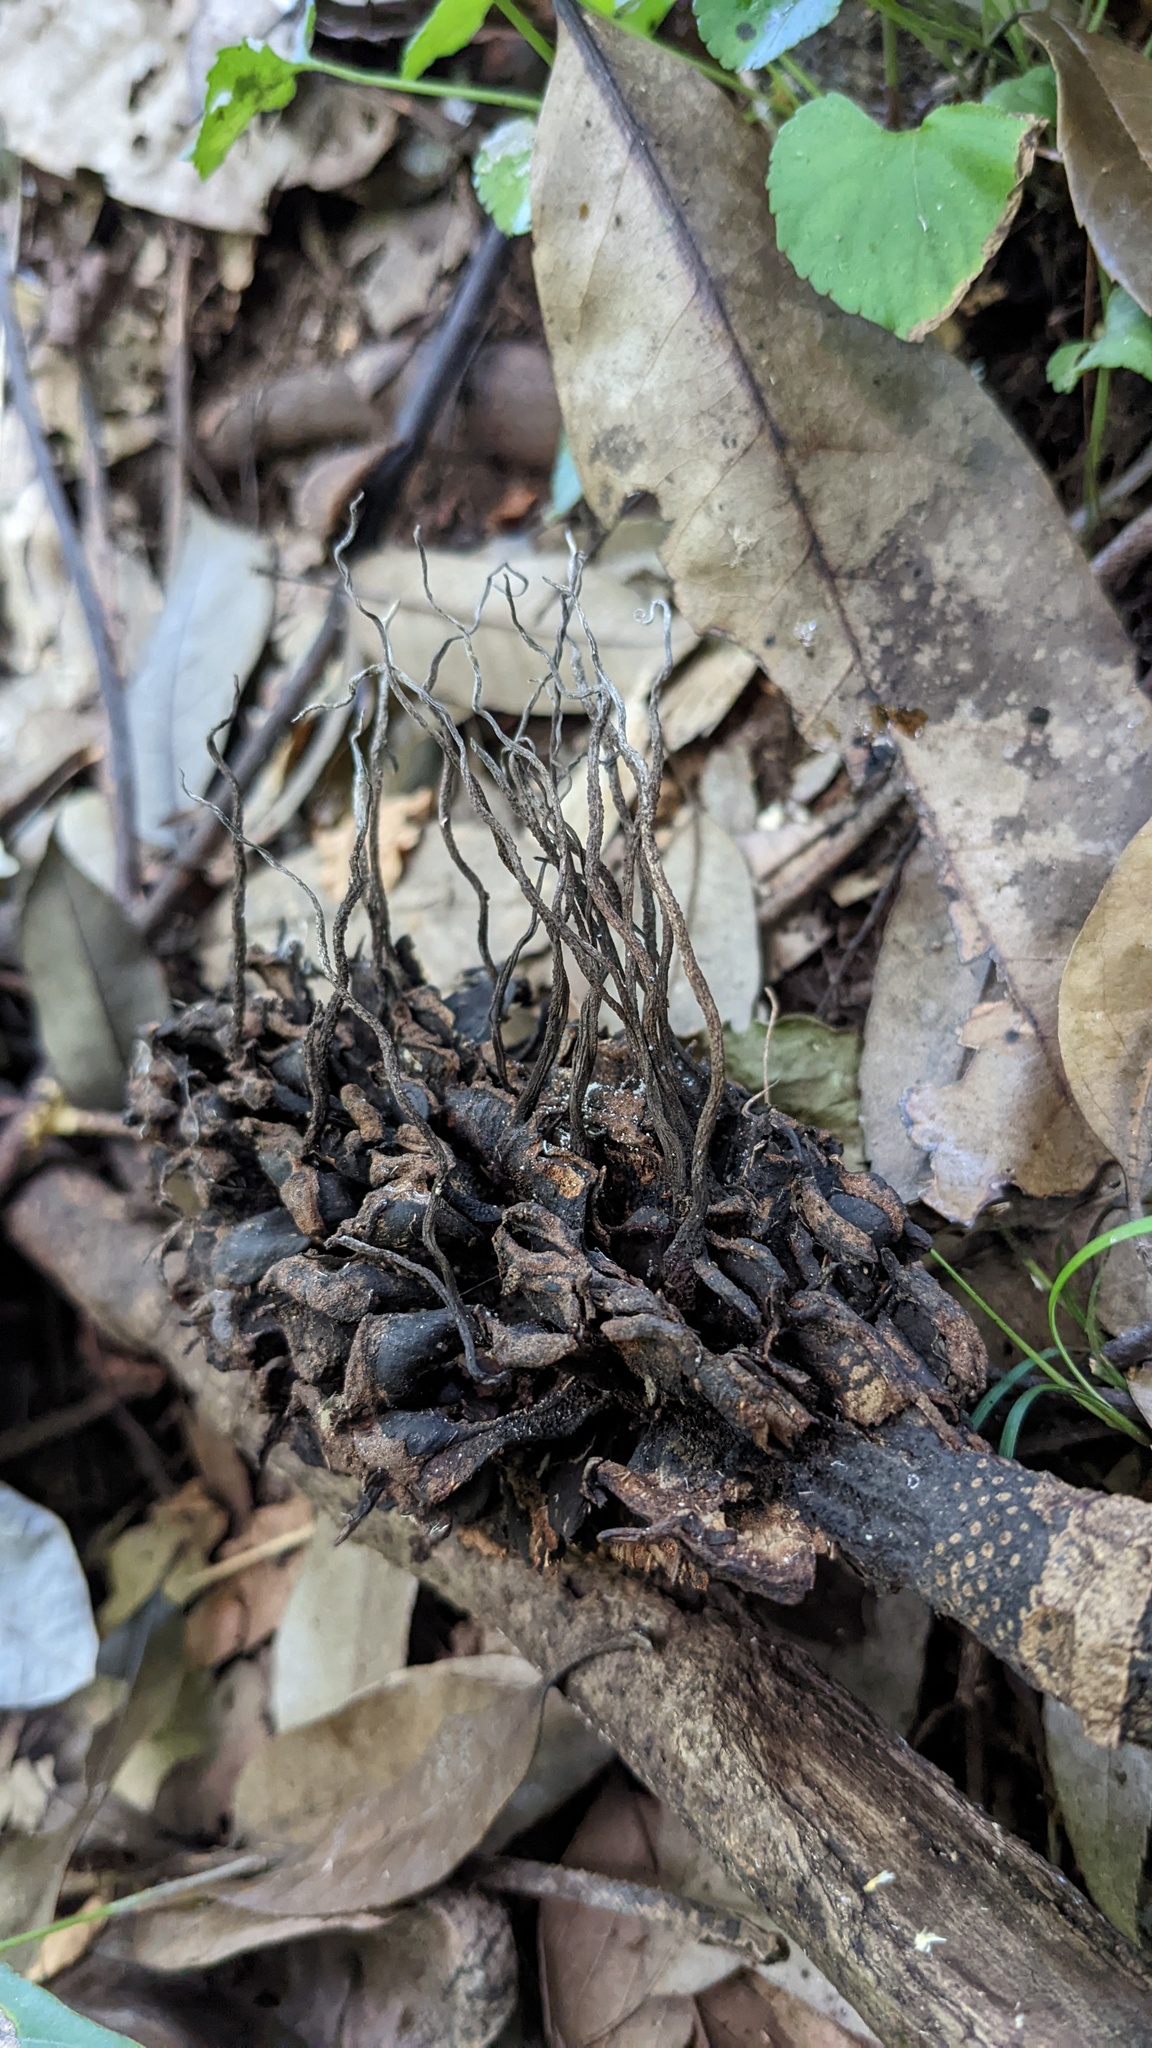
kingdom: Fungi
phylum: Ascomycota
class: Sordariomycetes
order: Xylariales
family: Xylariaceae
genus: Xylaria
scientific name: Xylaria magnoliae
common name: Magnolia-cone xylaria
